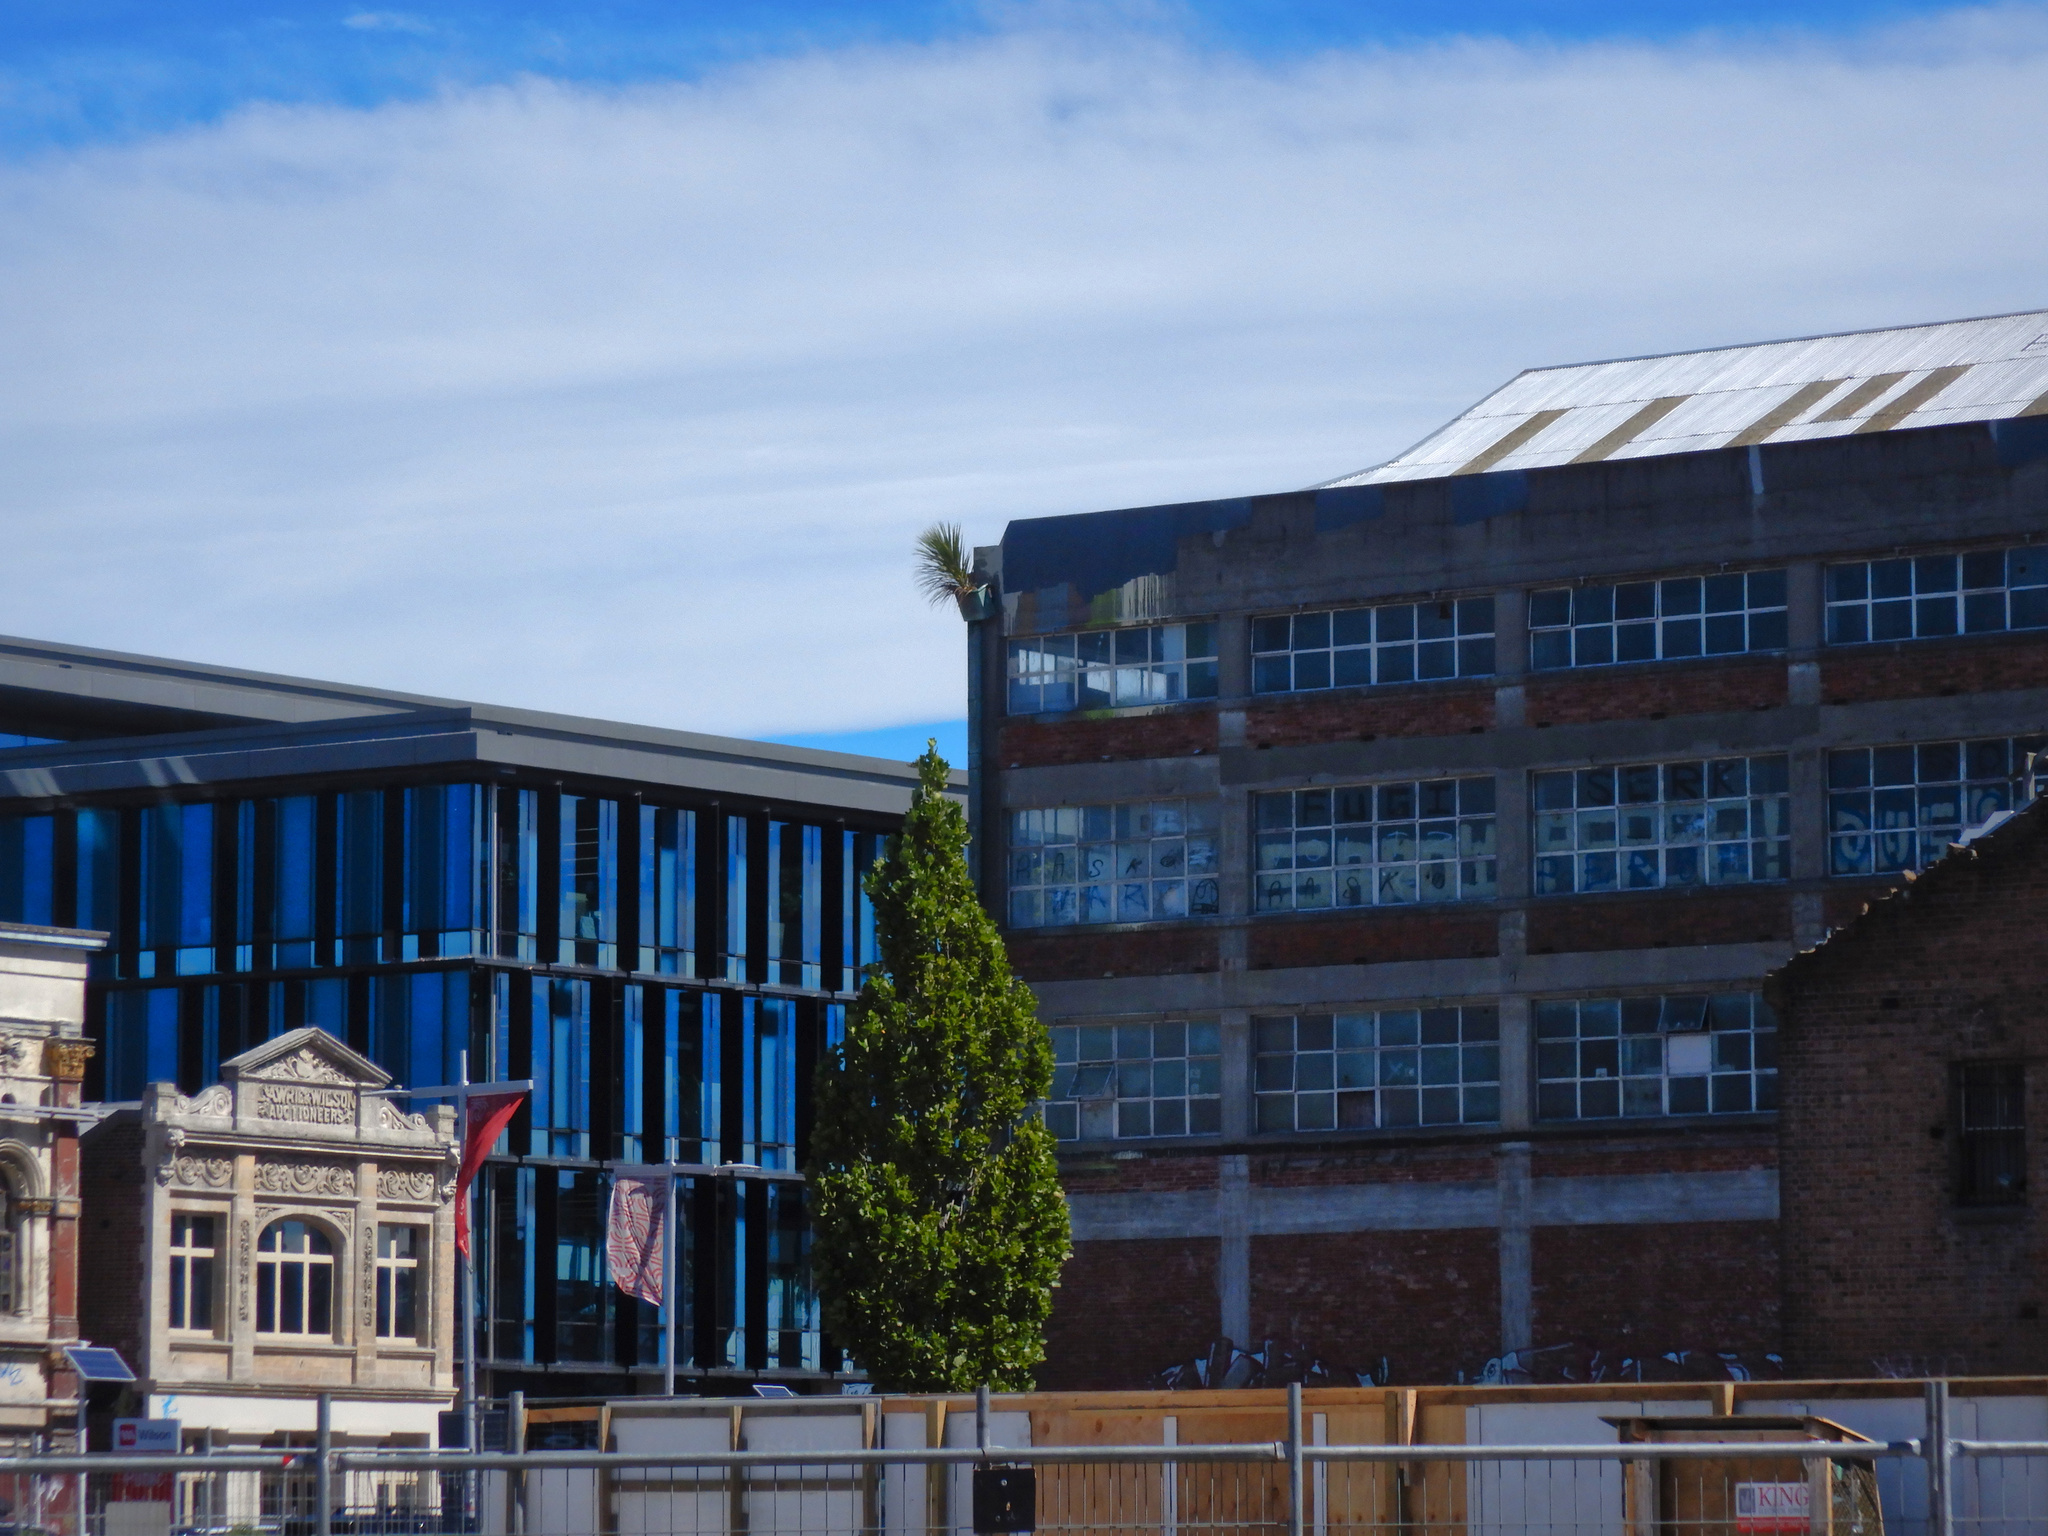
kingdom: Plantae
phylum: Tracheophyta
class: Liliopsida
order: Asparagales
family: Asparagaceae
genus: Cordyline
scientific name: Cordyline australis
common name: Cabbage-palm
